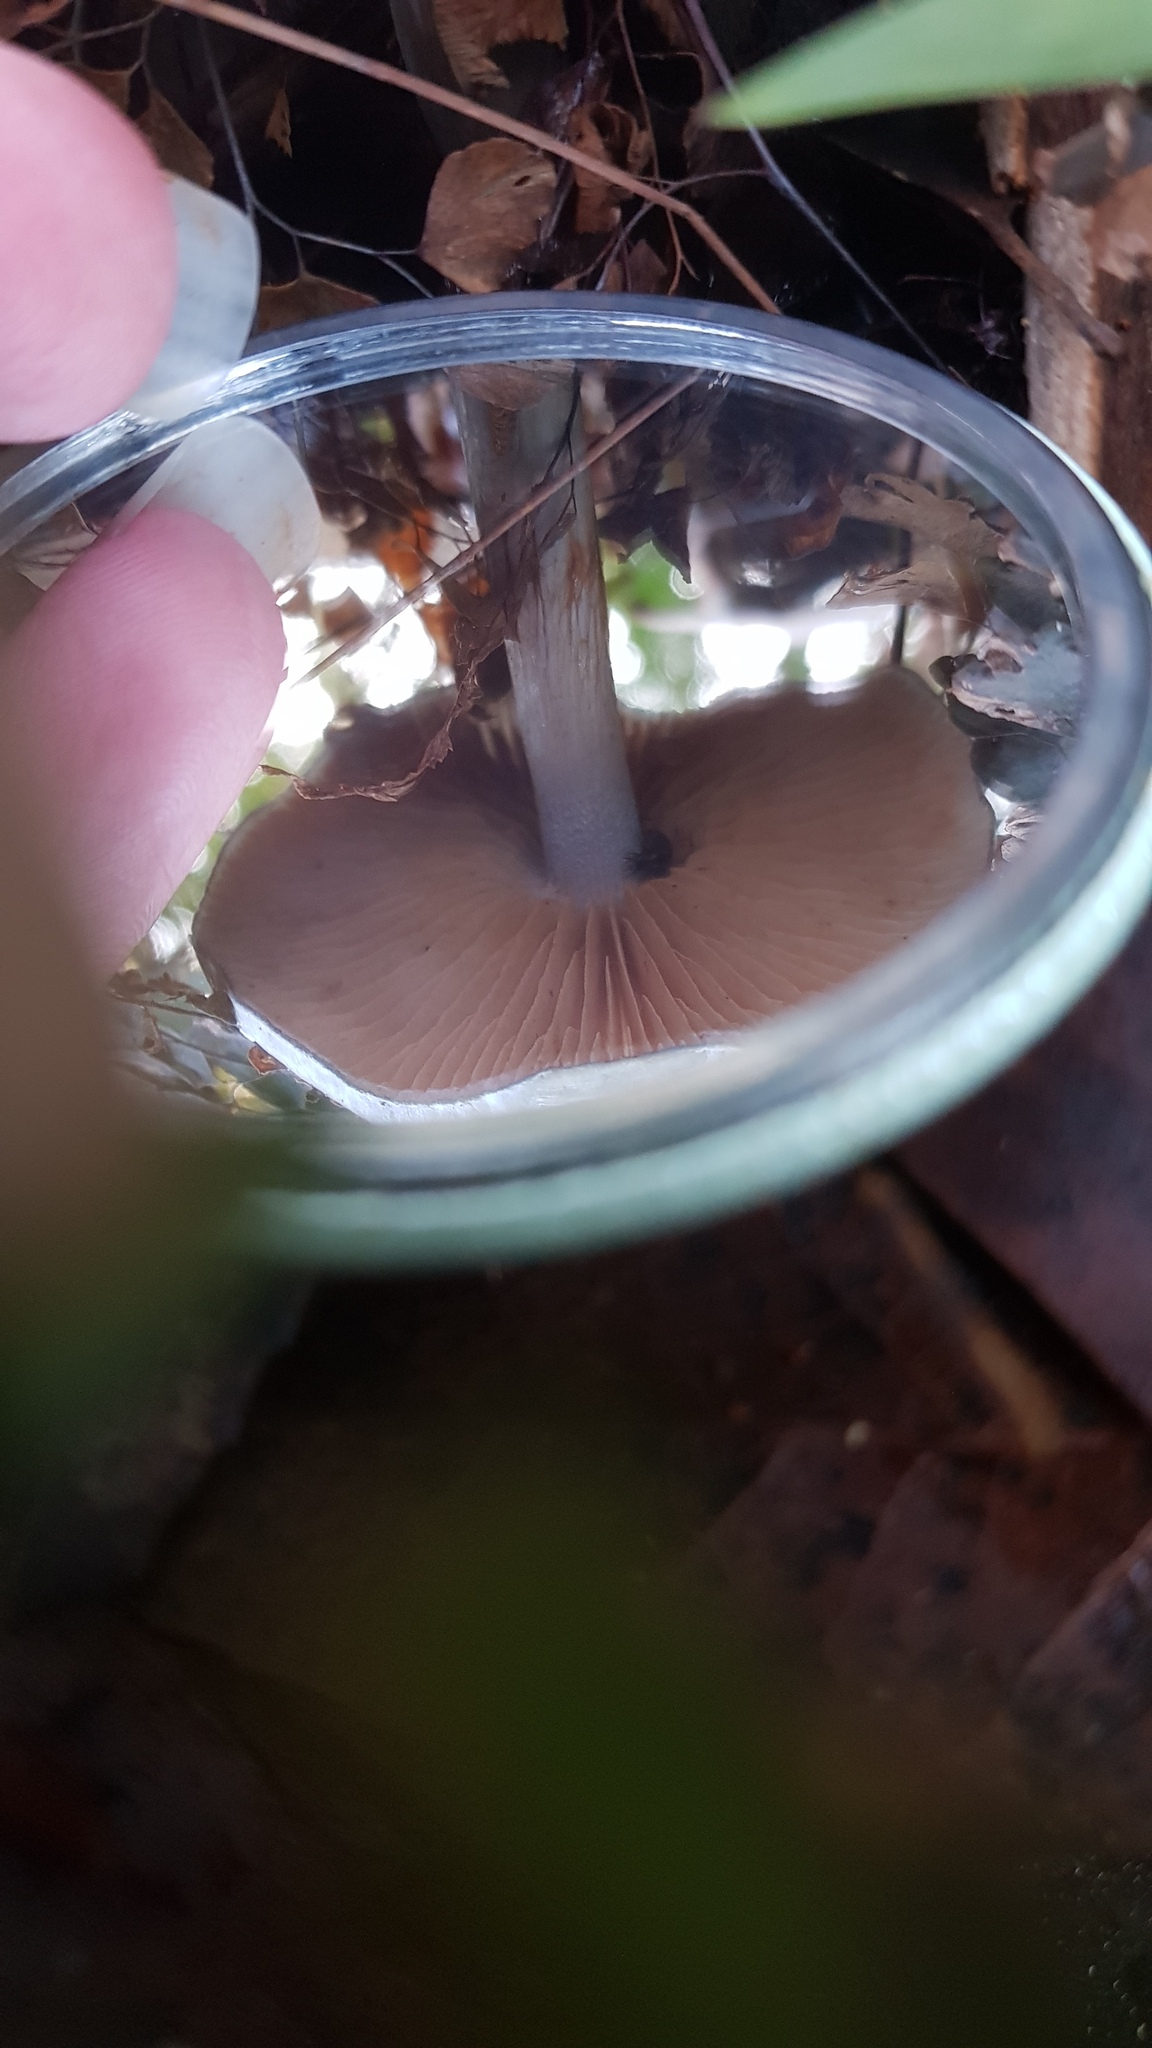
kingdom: Fungi
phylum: Basidiomycota
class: Agaricomycetes
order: Agaricales
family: Cortinariaceae
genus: Cortinarius
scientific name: Cortinarius rotundisporus
